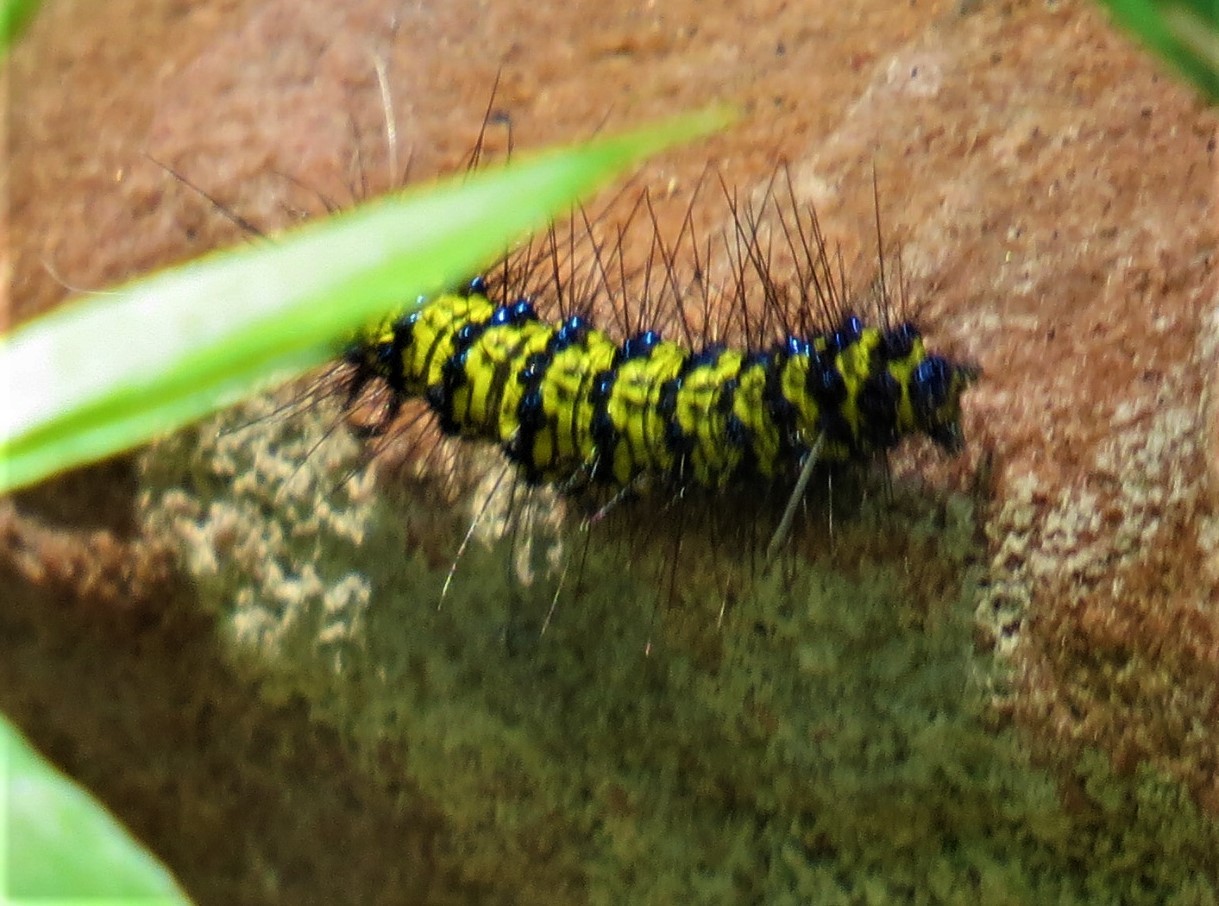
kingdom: Animalia
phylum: Arthropoda
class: Insecta
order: Lepidoptera
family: Erebidae
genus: Phaloesia
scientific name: Phaloesia saucia
